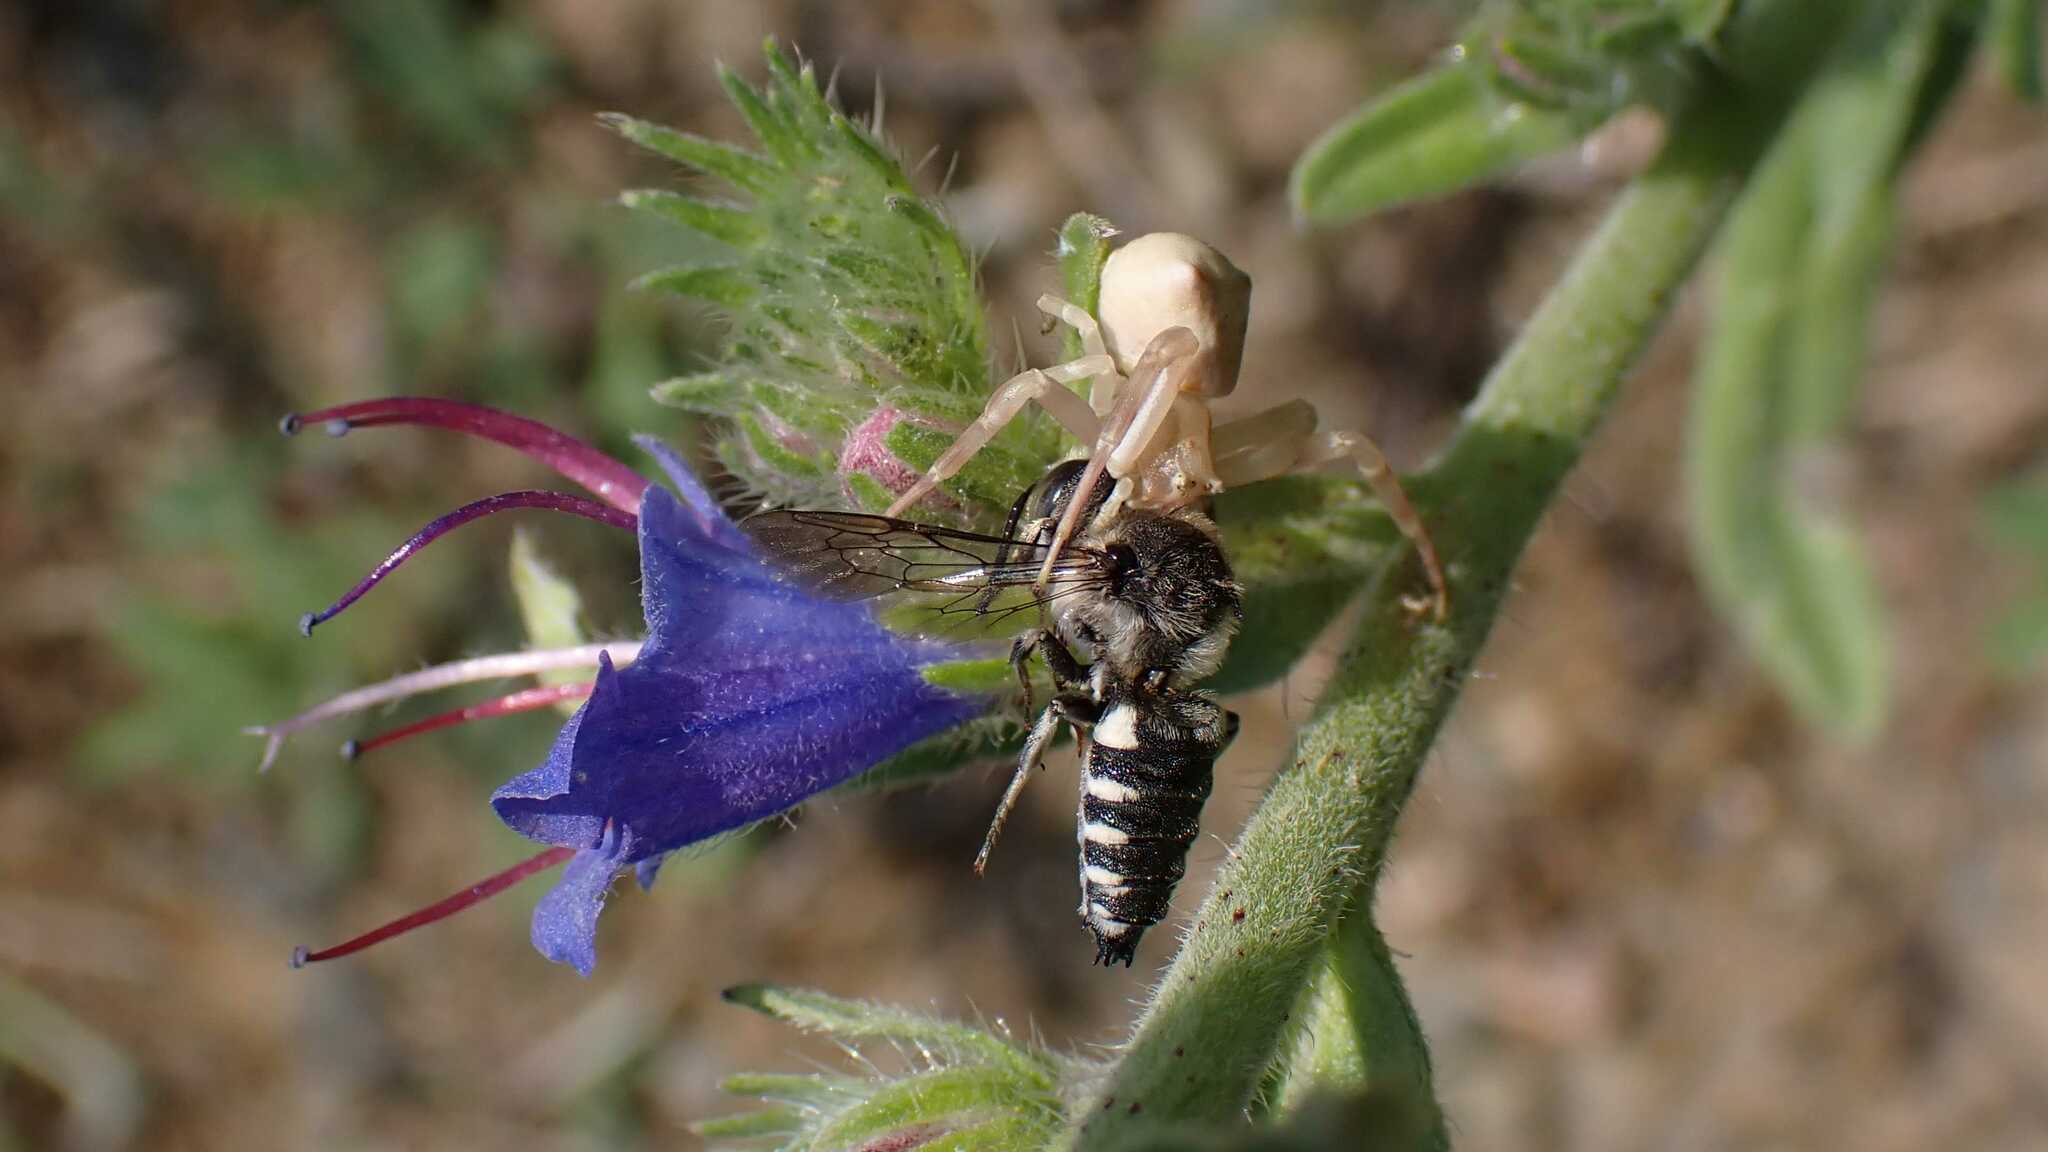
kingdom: Animalia
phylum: Arthropoda
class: Arachnida
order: Araneae
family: Thomisidae
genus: Thomisus
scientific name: Thomisus onustus
